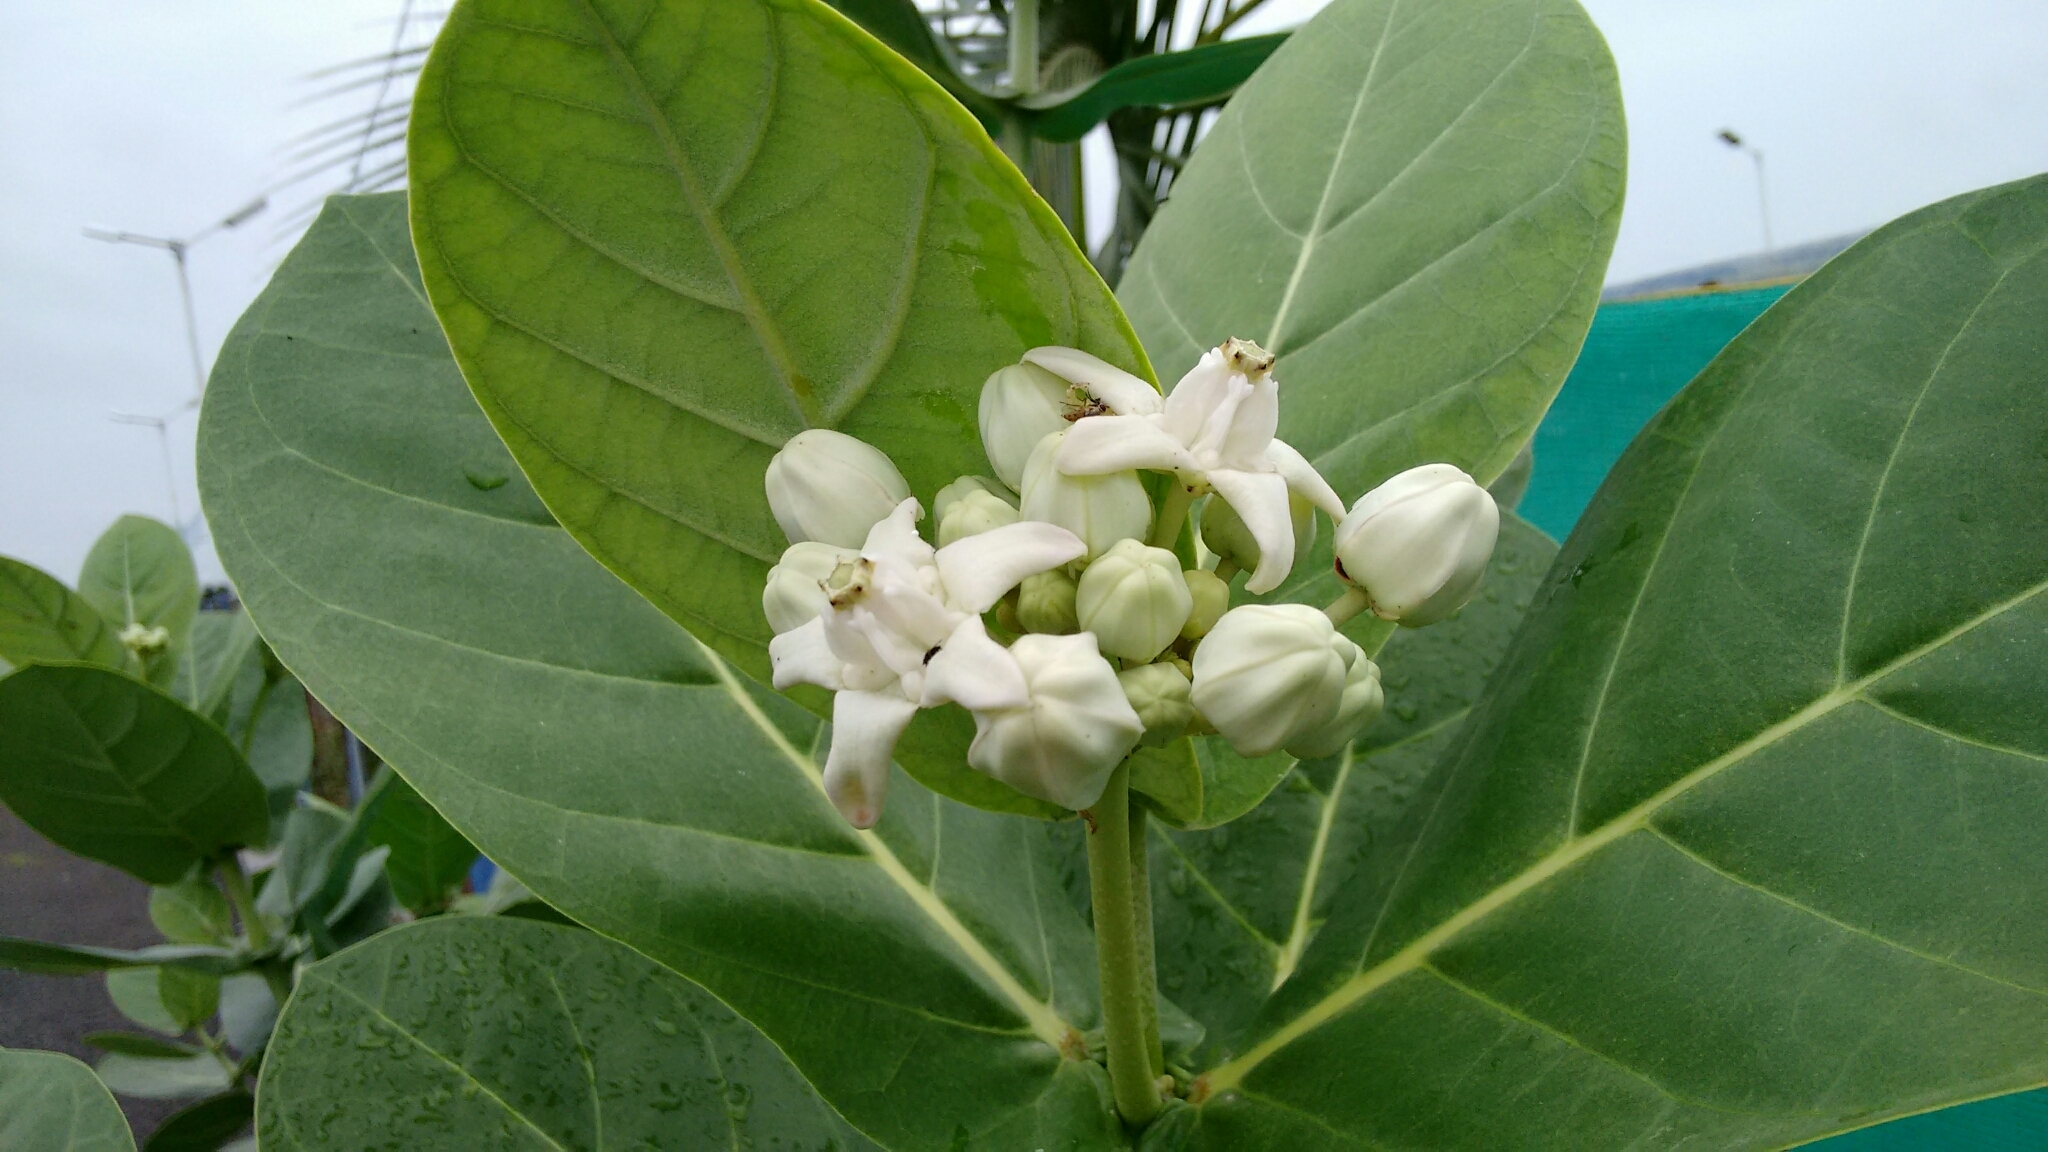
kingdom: Plantae
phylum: Tracheophyta
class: Magnoliopsida
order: Gentianales
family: Apocynaceae
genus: Calotropis
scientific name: Calotropis gigantea
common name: Crown flower
